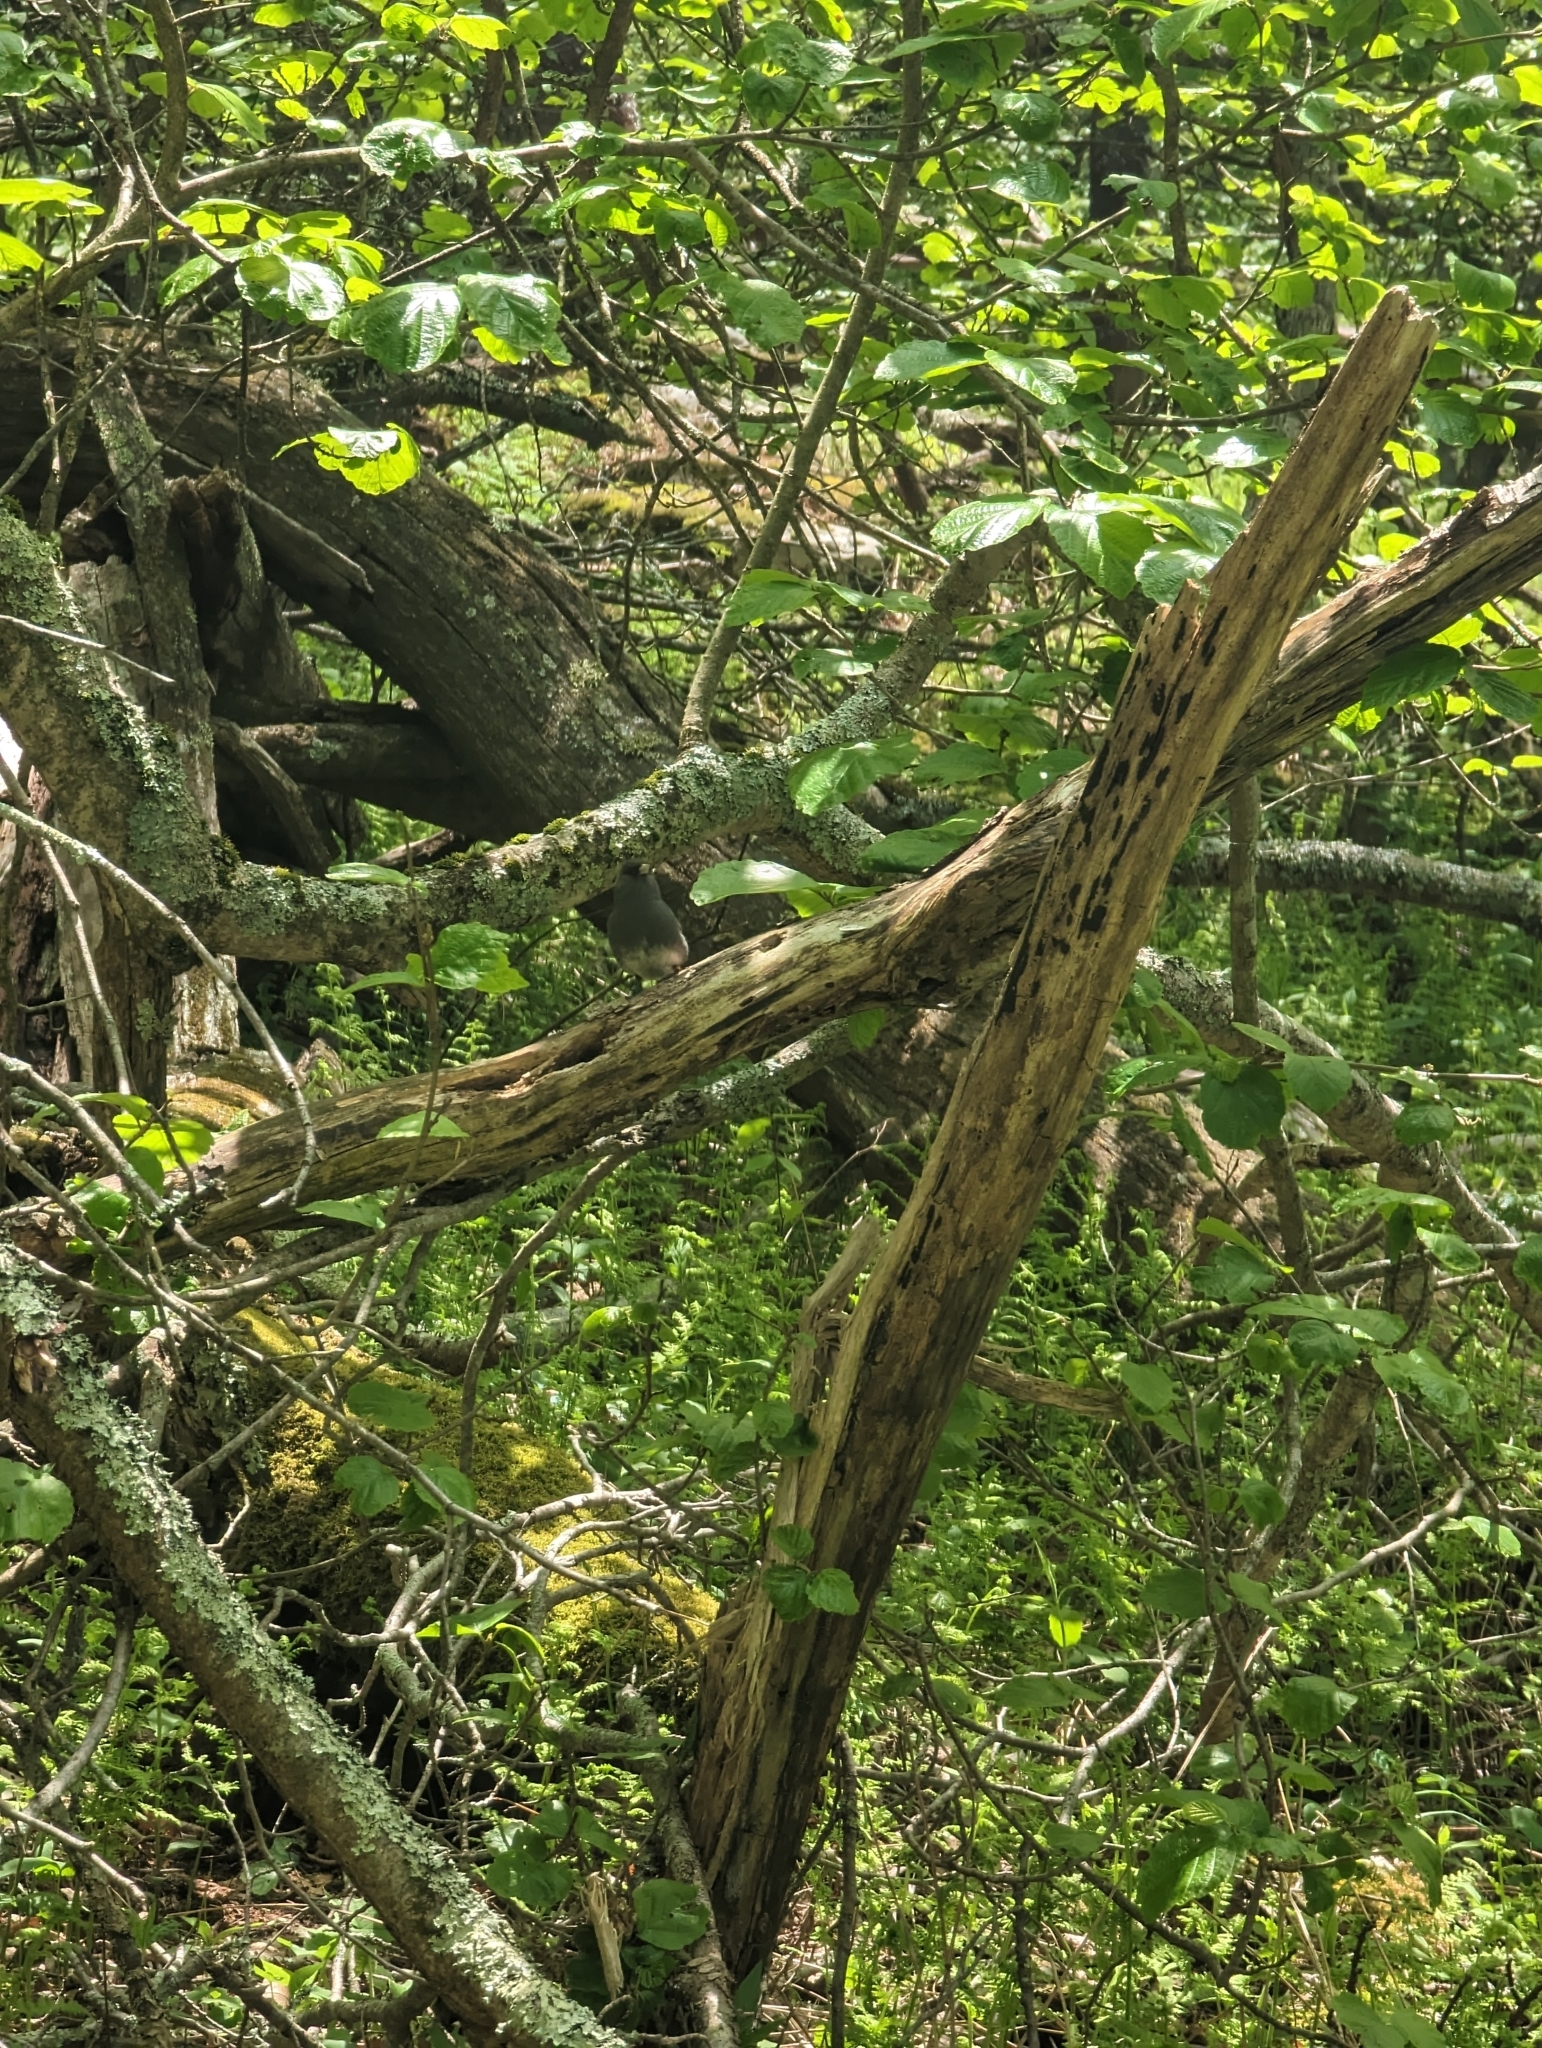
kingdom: Animalia
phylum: Chordata
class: Aves
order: Passeriformes
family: Passerellidae
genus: Junco
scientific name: Junco hyemalis
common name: Dark-eyed junco
